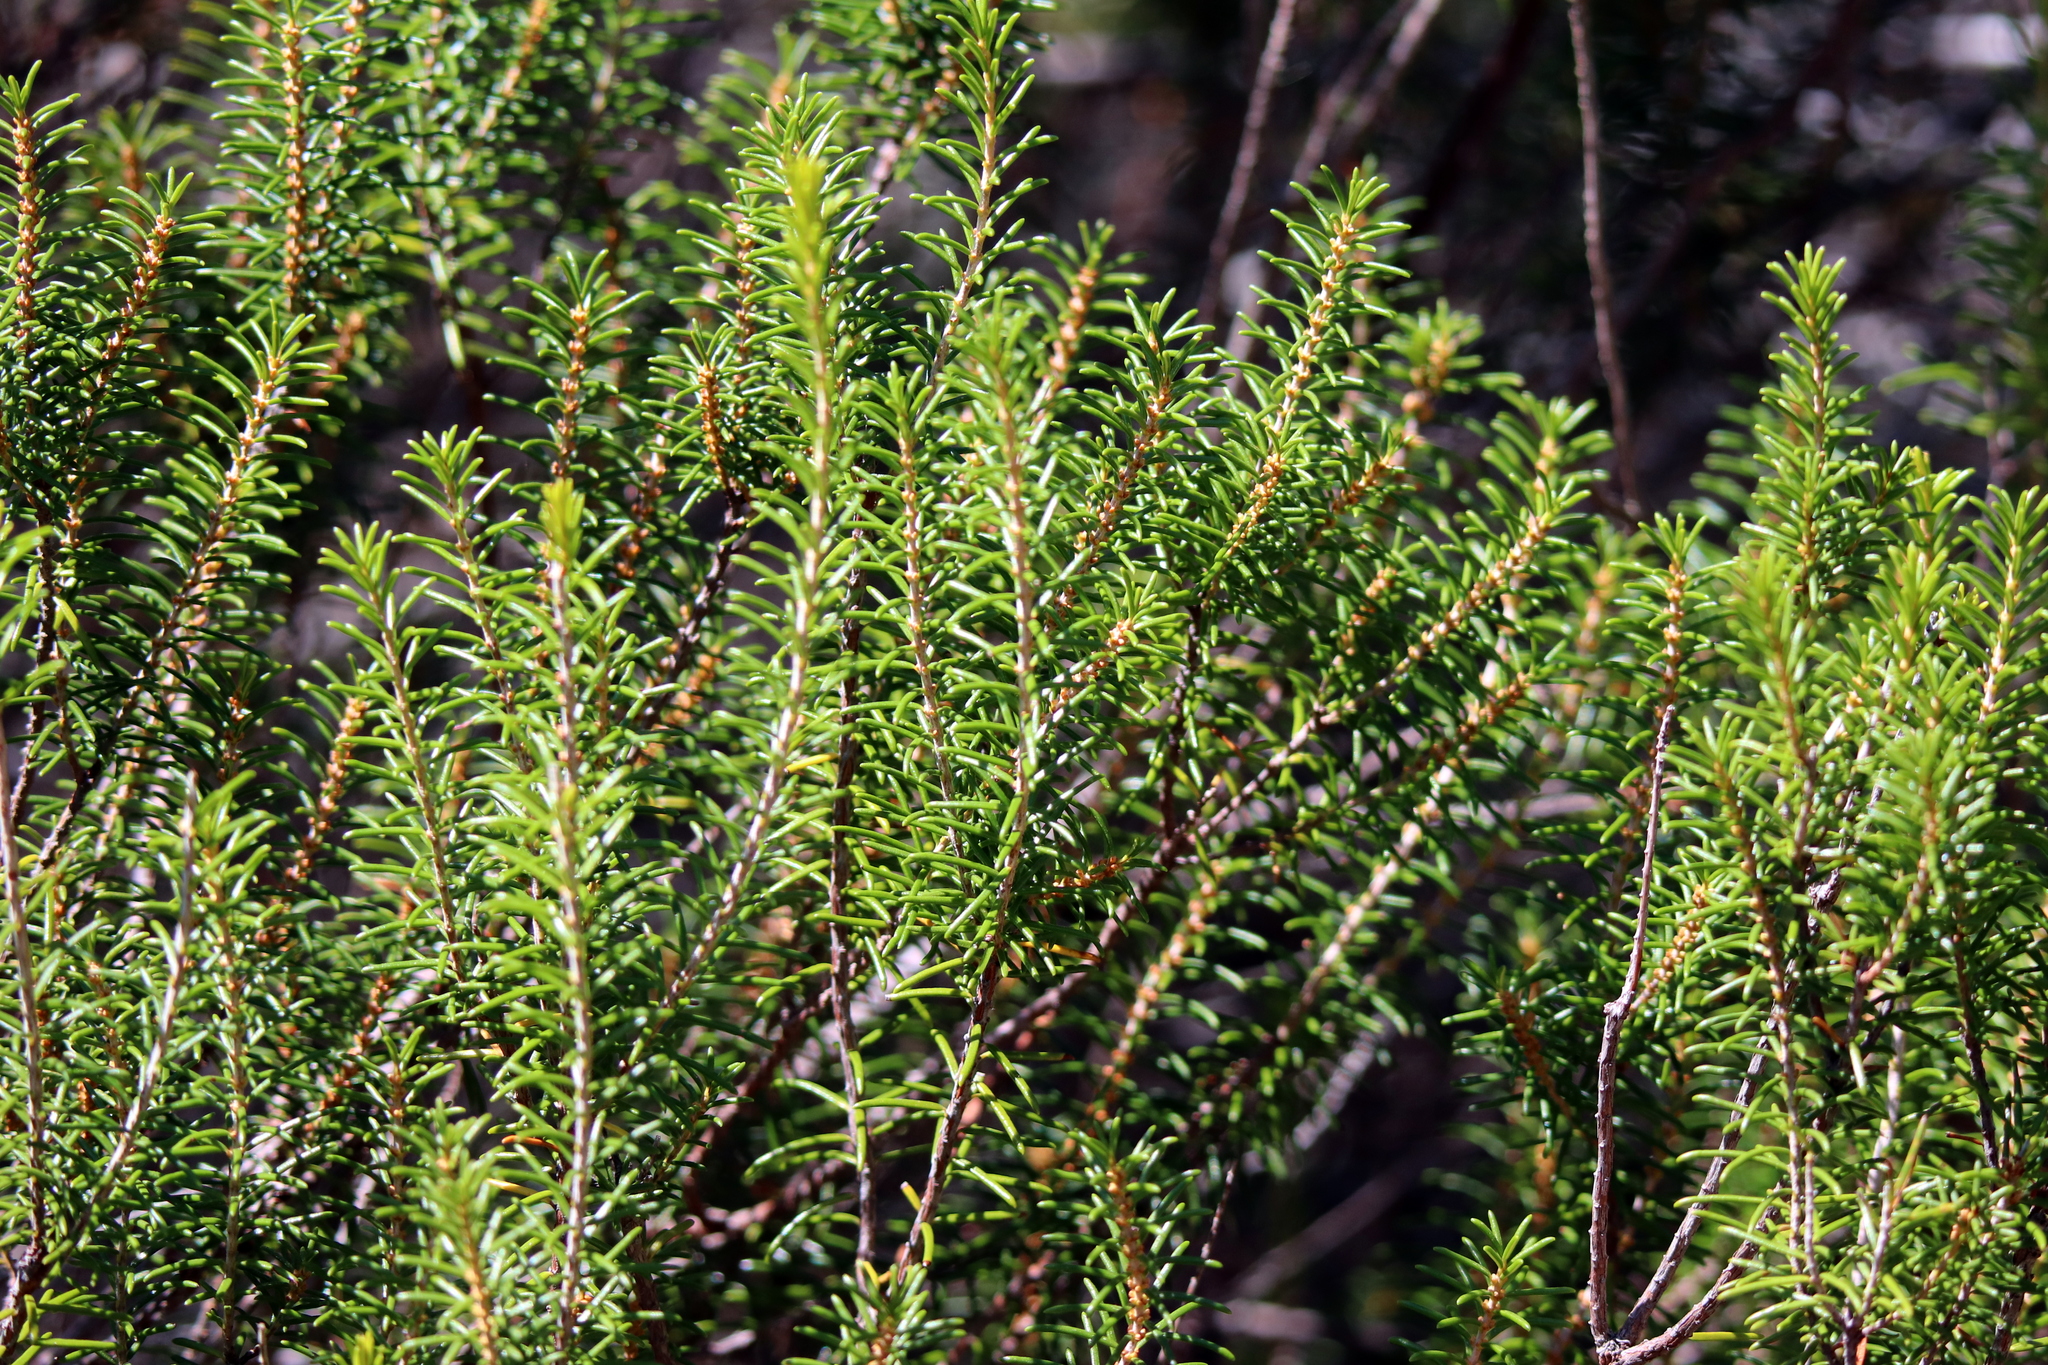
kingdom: Plantae
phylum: Tracheophyta
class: Magnoliopsida
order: Ericales
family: Ericaceae
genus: Ceratiola
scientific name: Ceratiola ericoides
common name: Sandhill-rosemary
